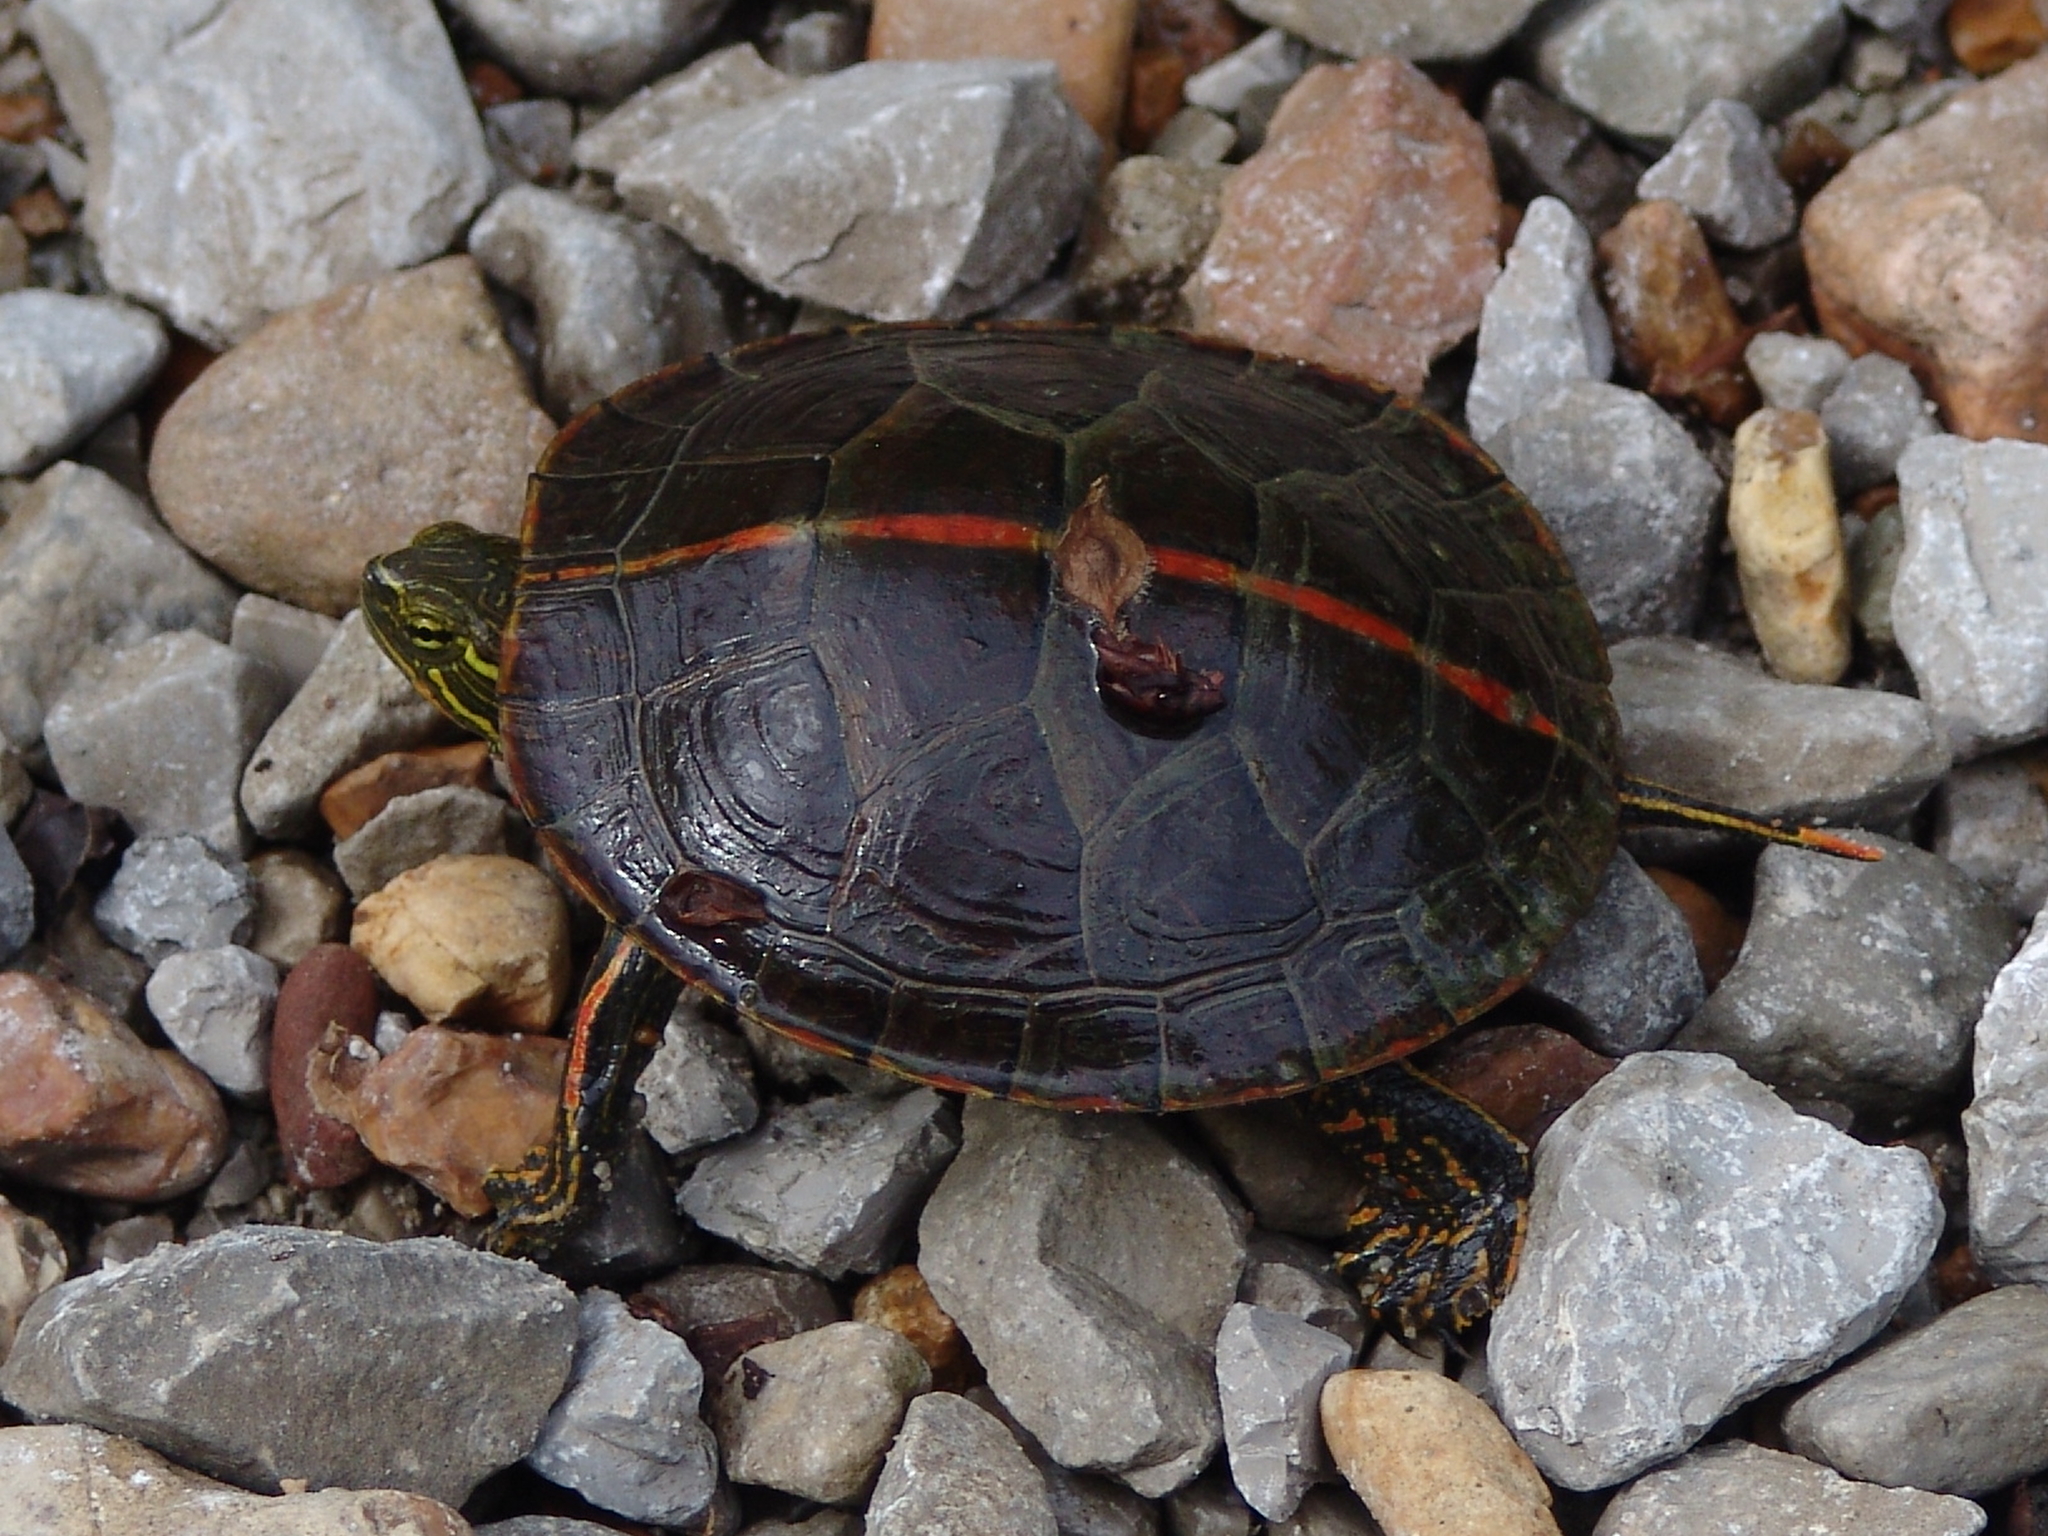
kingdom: Animalia
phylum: Chordata
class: Testudines
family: Emydidae
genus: Chrysemys
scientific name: Chrysemys dorsalis
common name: Southern painted turtle
